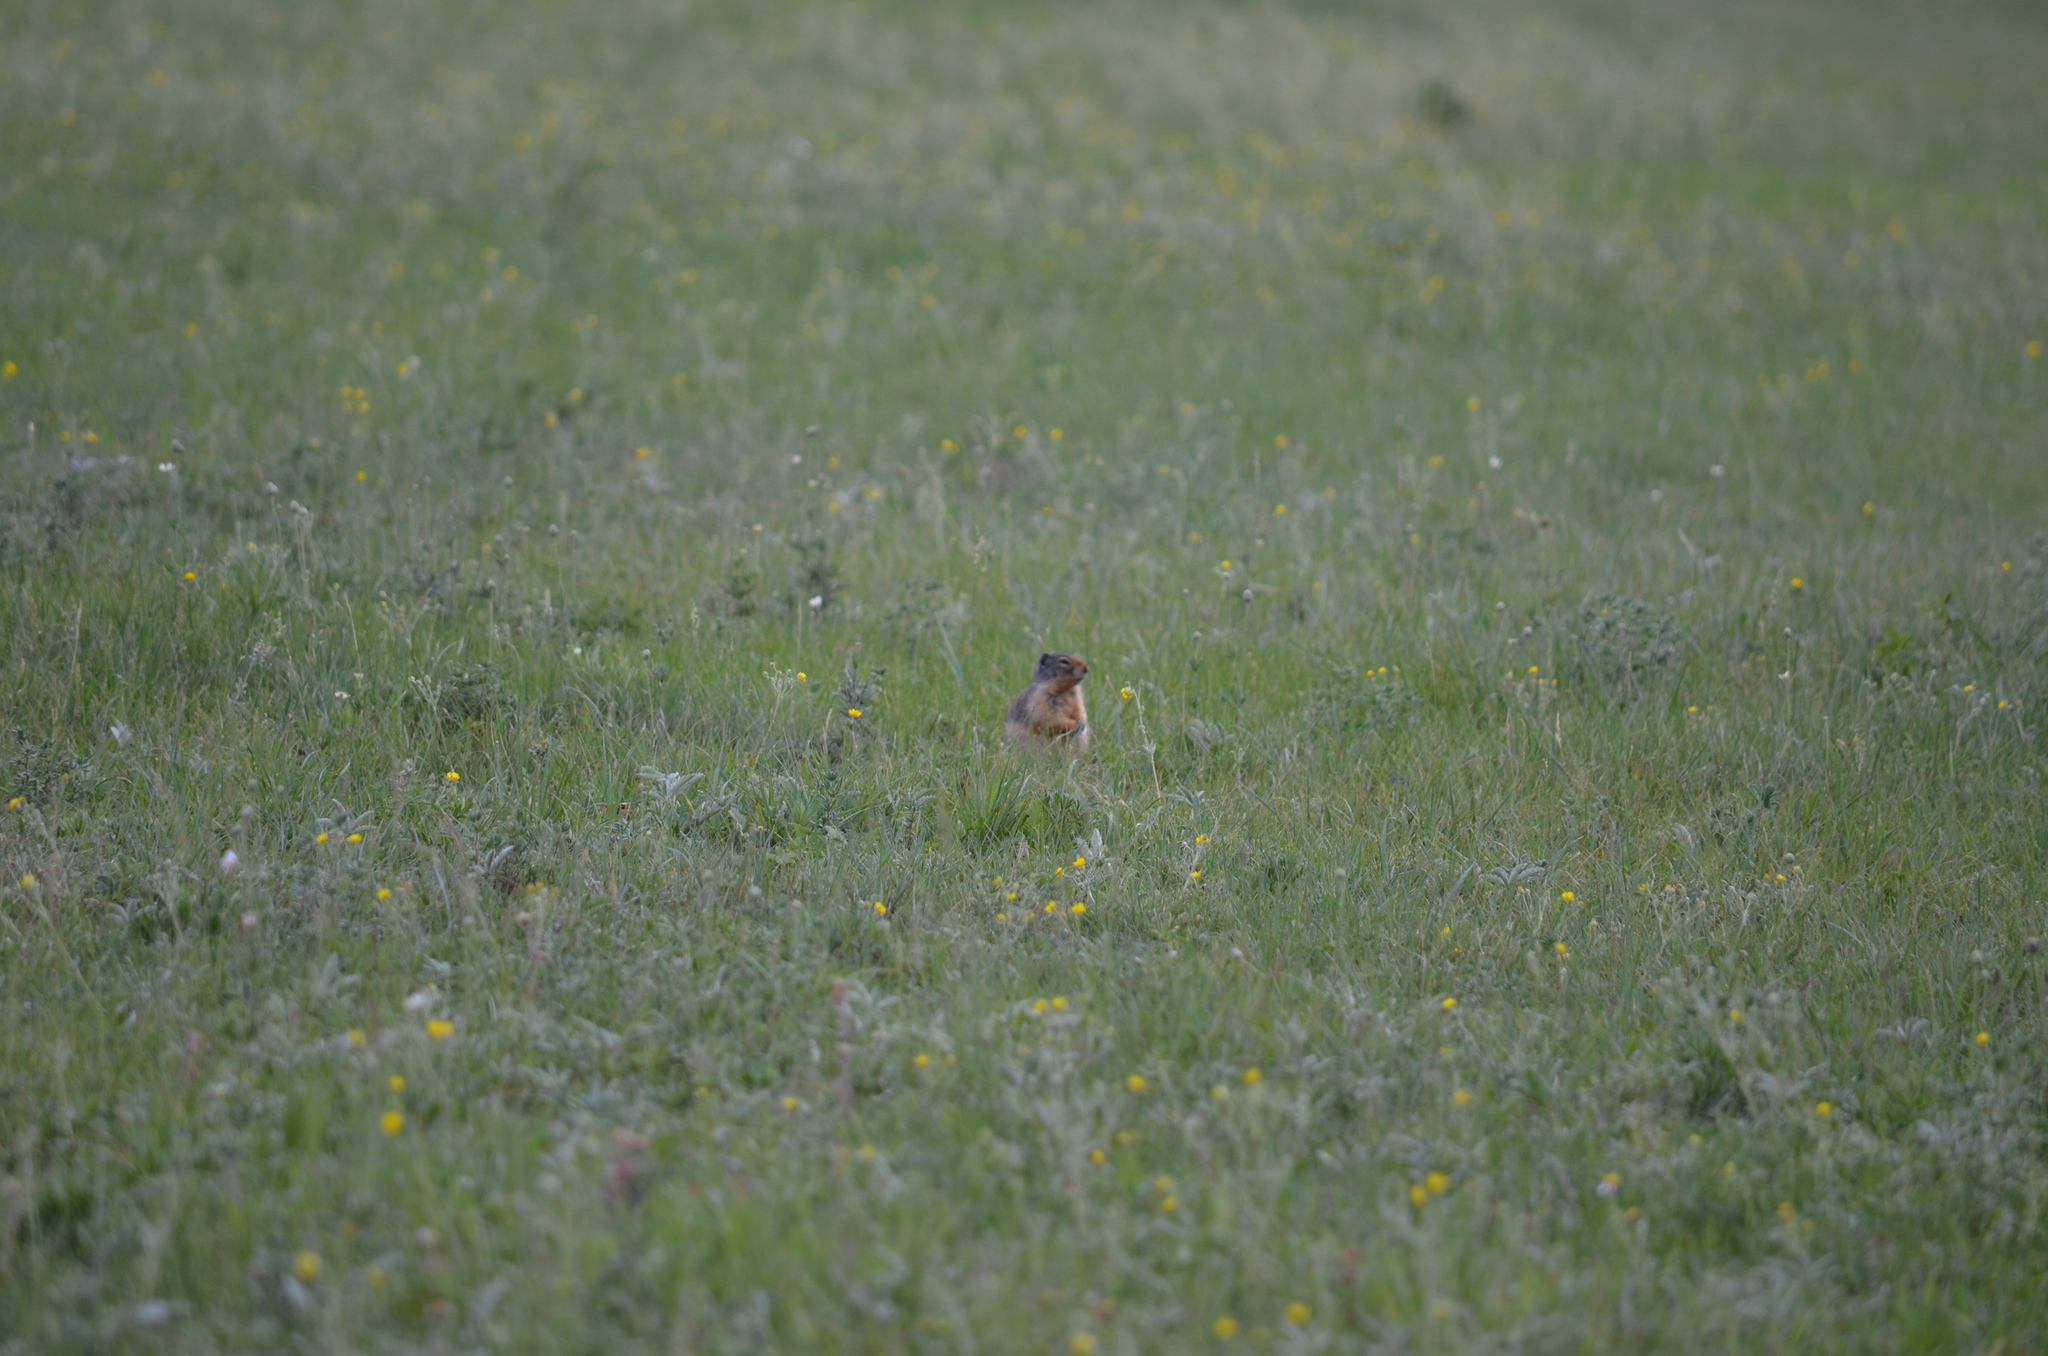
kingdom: Animalia
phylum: Chordata
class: Mammalia
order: Rodentia
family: Sciuridae
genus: Urocitellus
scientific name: Urocitellus columbianus
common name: Columbian ground squirrel
